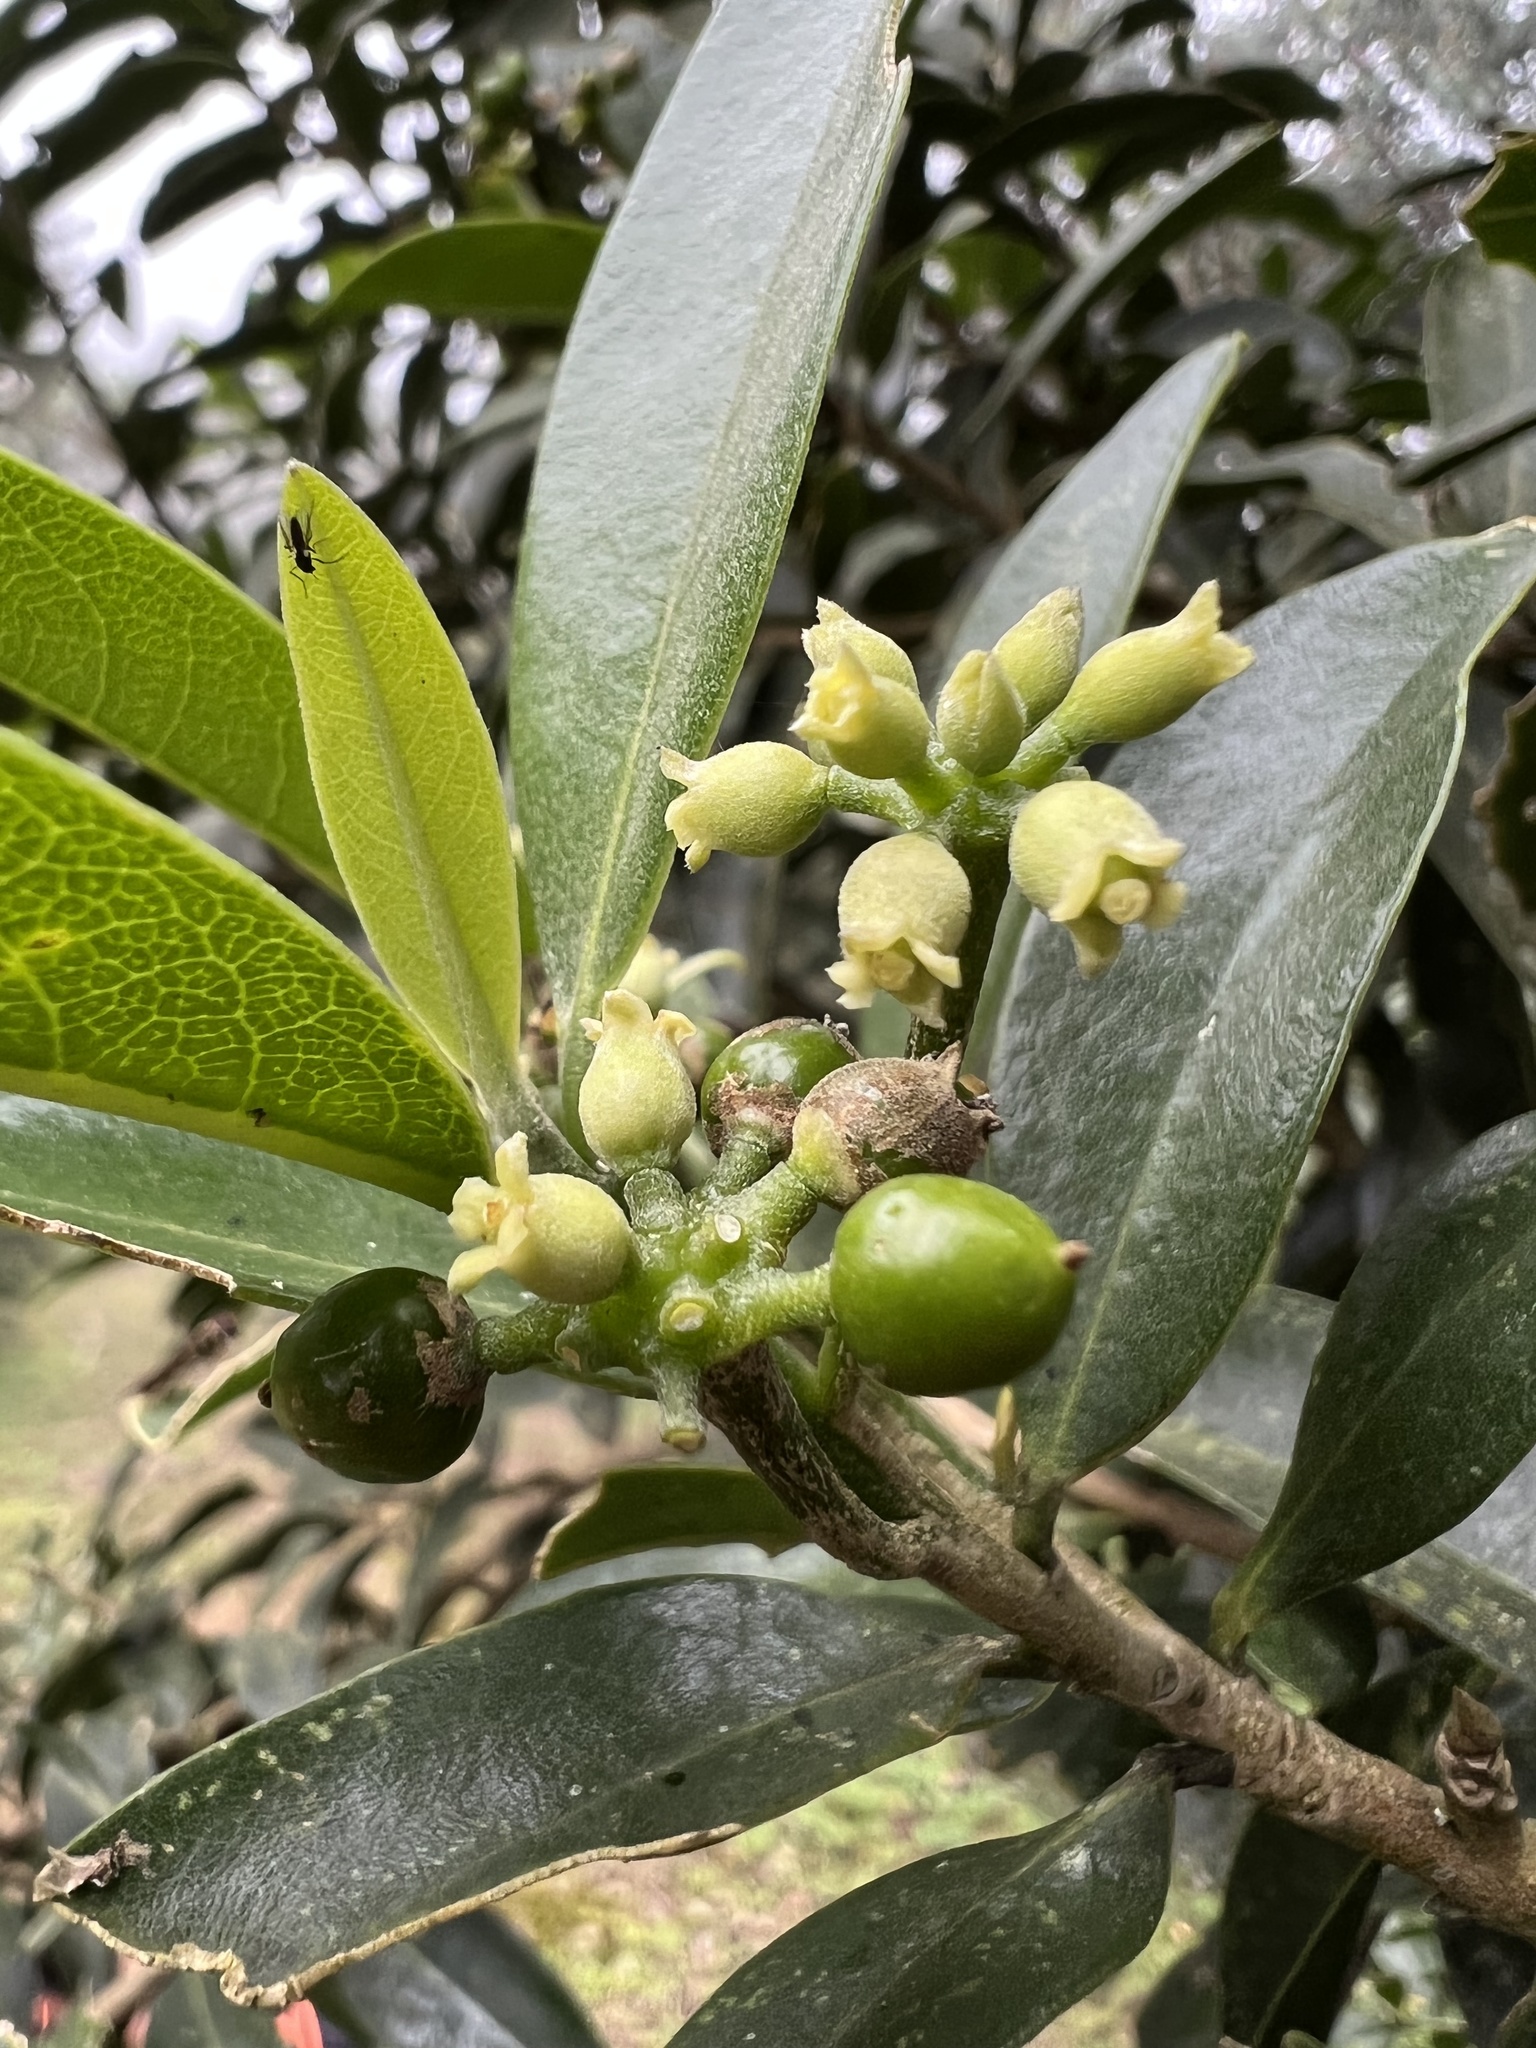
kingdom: Plantae
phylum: Tracheophyta
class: Magnoliopsida
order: Malvales
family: Thymelaeaceae
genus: Daphnopsis
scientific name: Daphnopsis caracasana
